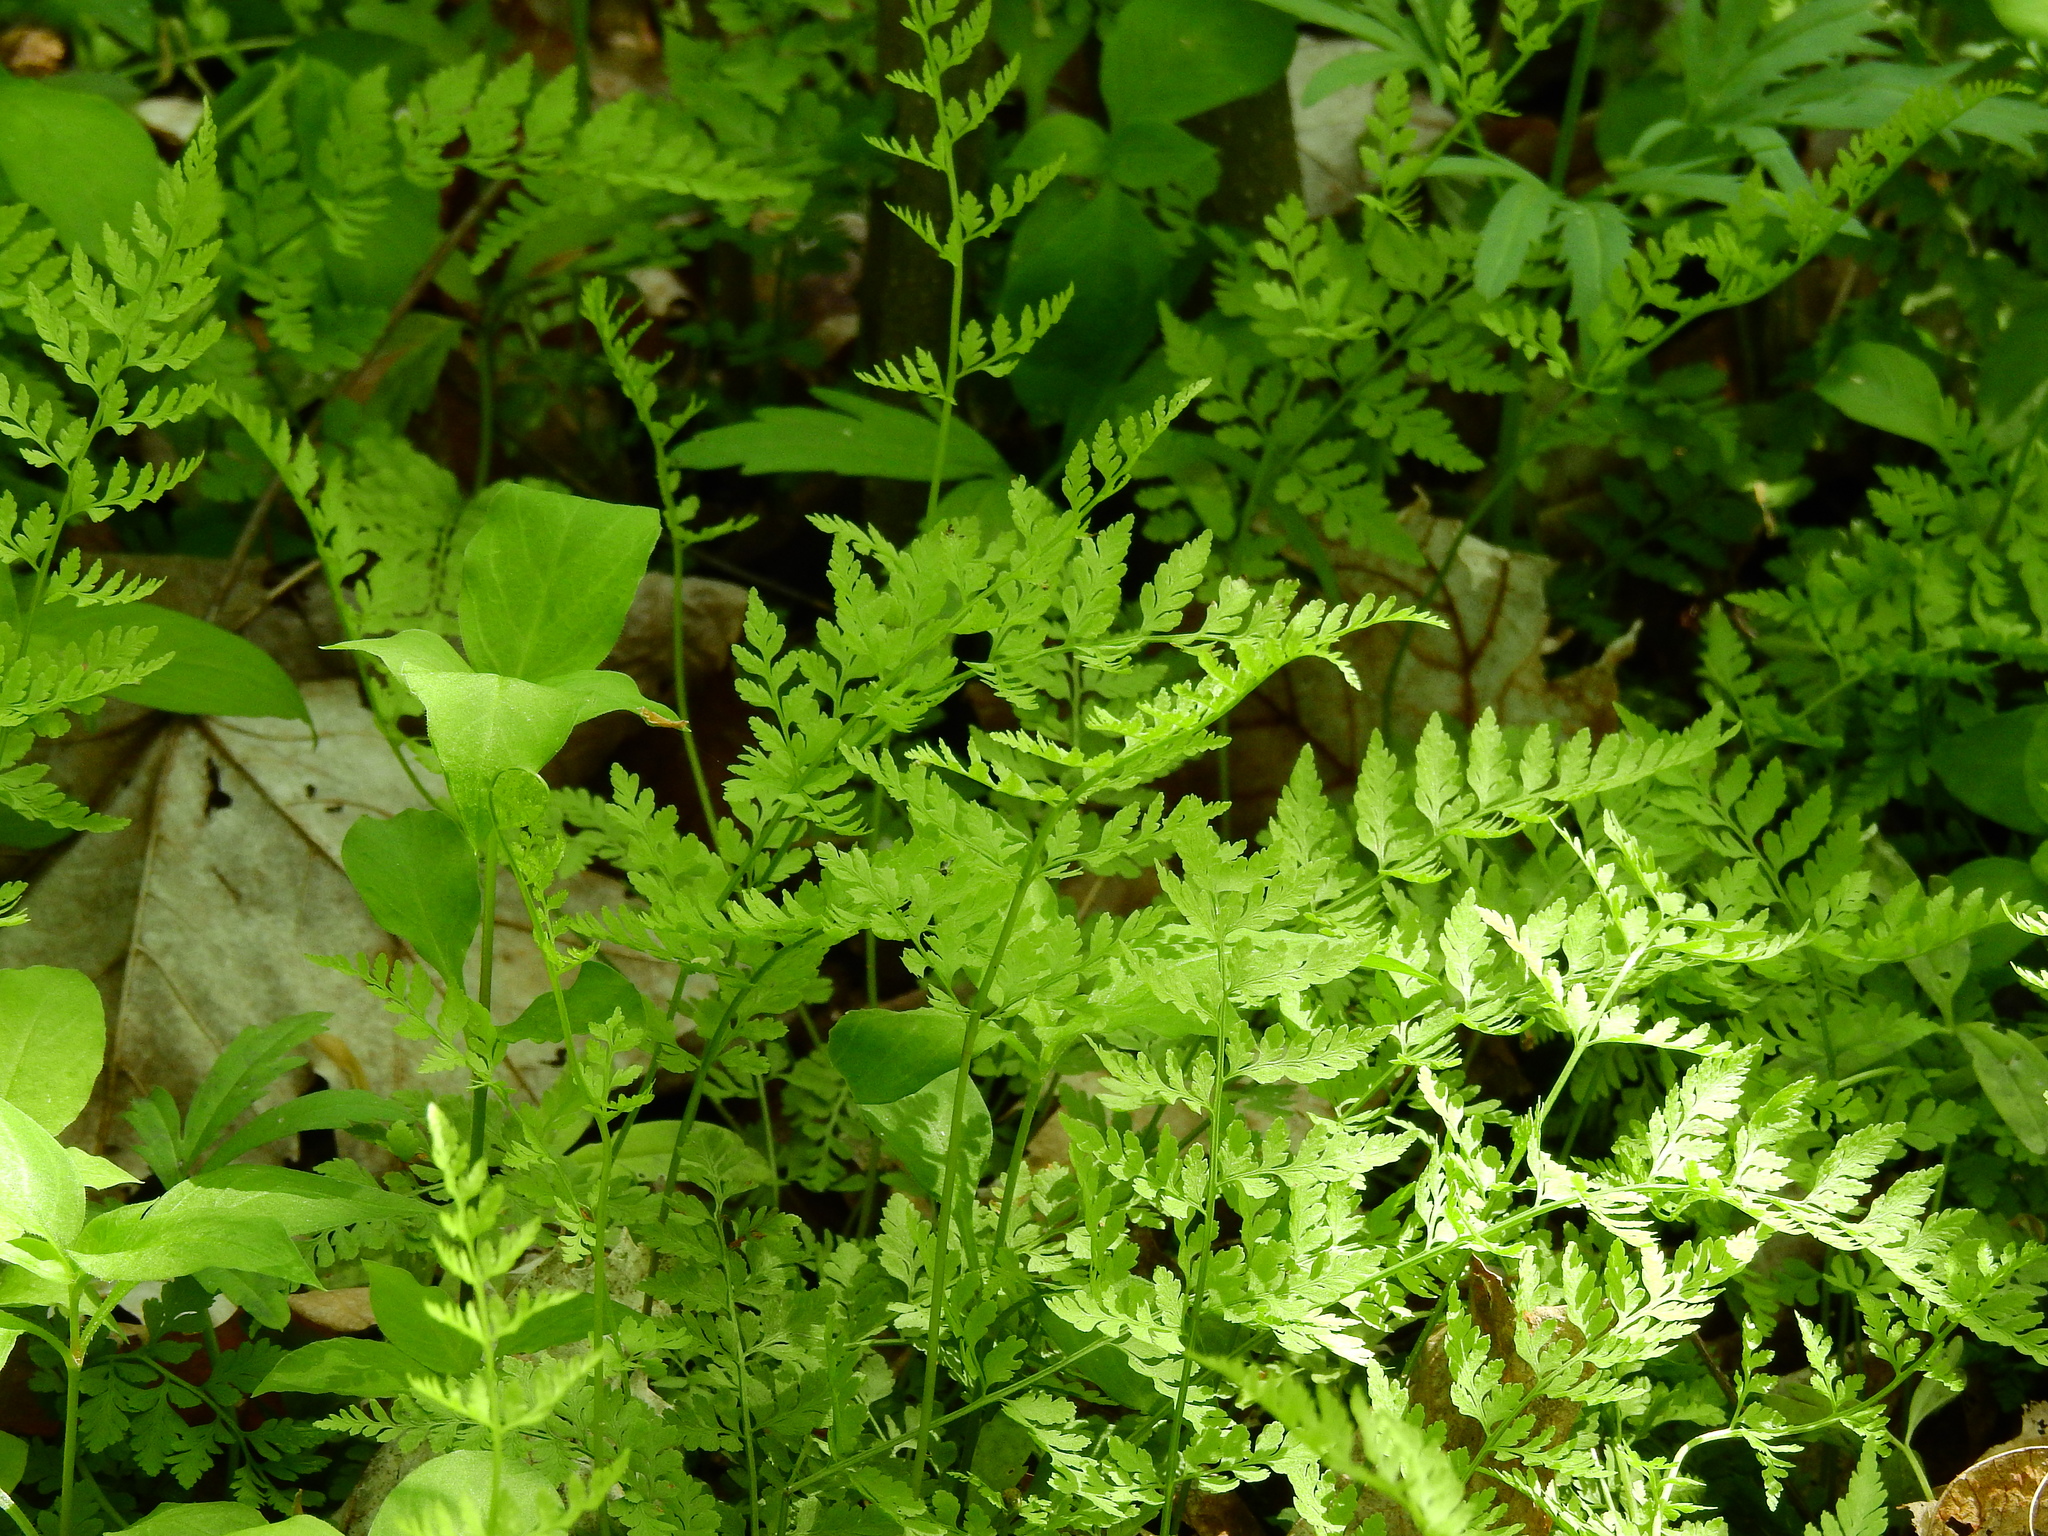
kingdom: Plantae
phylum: Tracheophyta
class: Polypodiopsida
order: Polypodiales
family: Cystopteridaceae
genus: Cystopteris
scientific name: Cystopteris protrusa
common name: Lowland brittle fern
